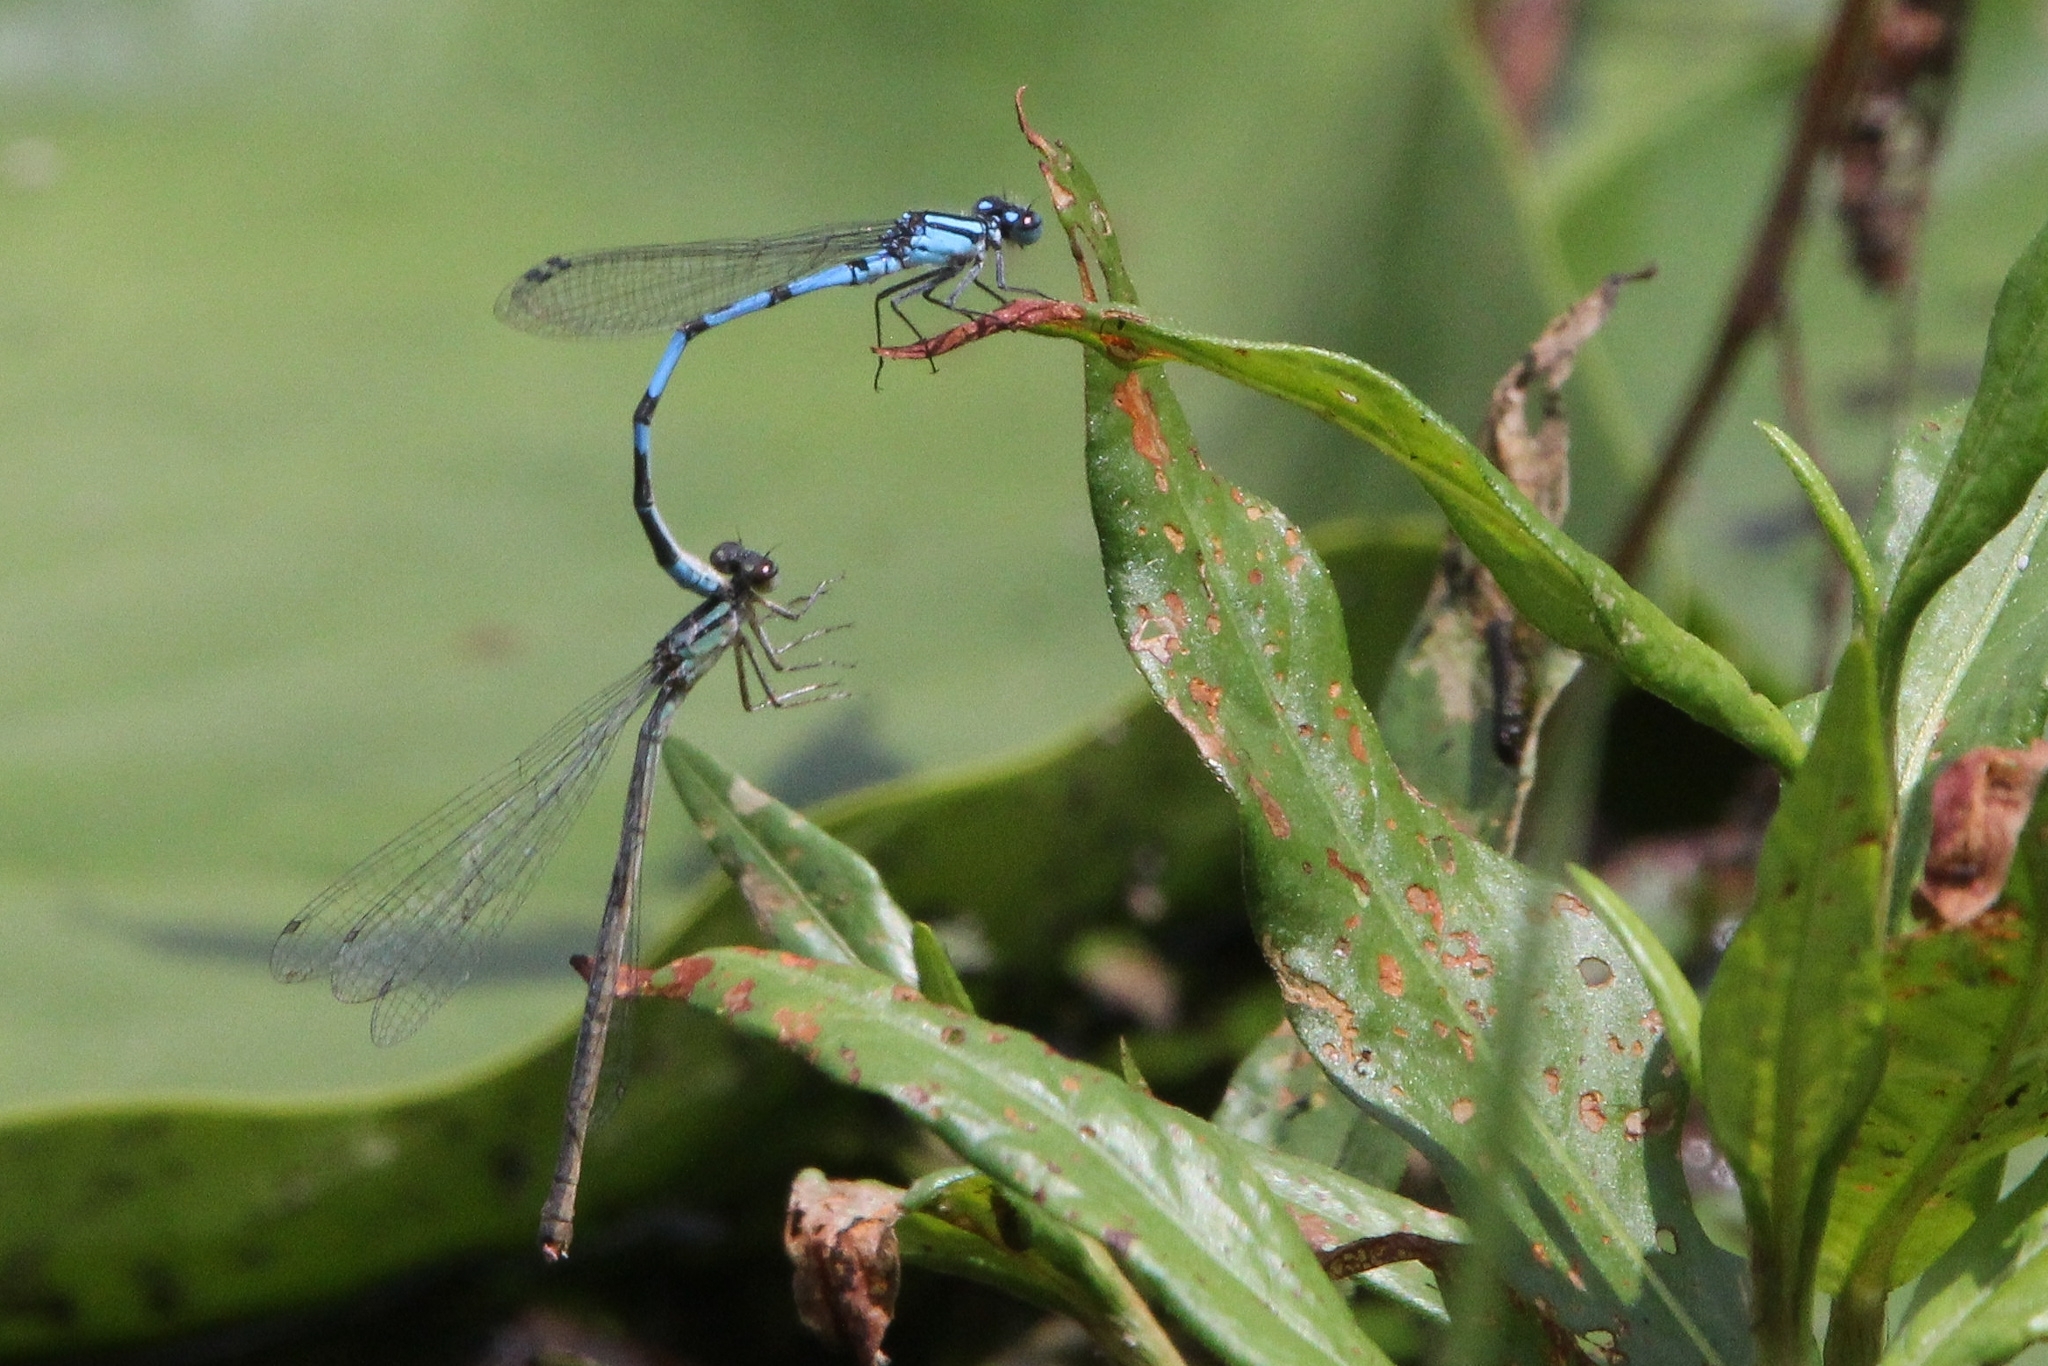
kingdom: Animalia
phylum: Arthropoda
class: Insecta
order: Odonata
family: Coenagrionidae
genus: Enallagma
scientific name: Enallagma hageni
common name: Hagen's bluet
